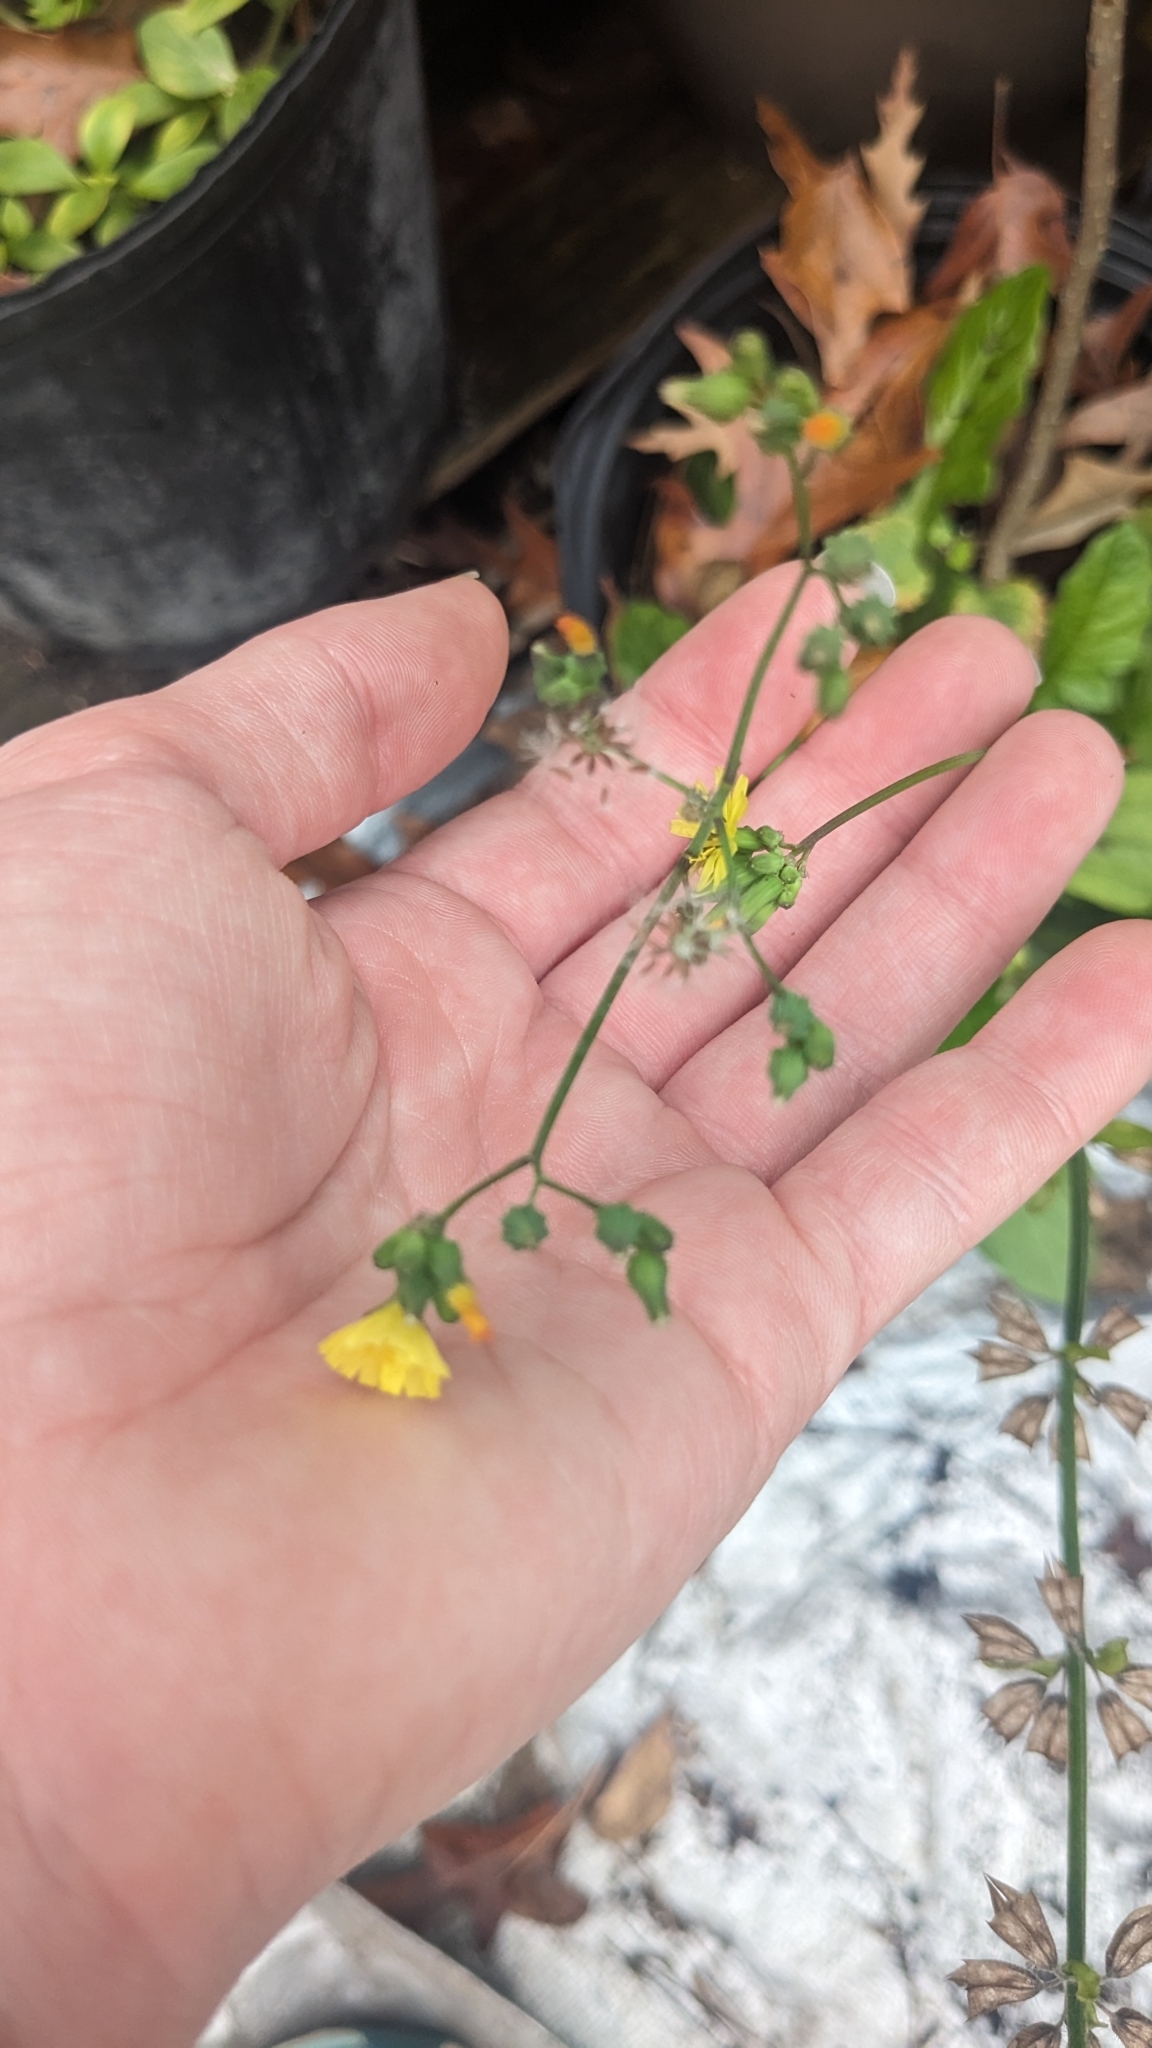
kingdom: Plantae
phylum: Tracheophyta
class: Magnoliopsida
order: Asterales
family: Asteraceae
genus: Youngia
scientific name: Youngia japonica
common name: Oriental false hawksbeard
